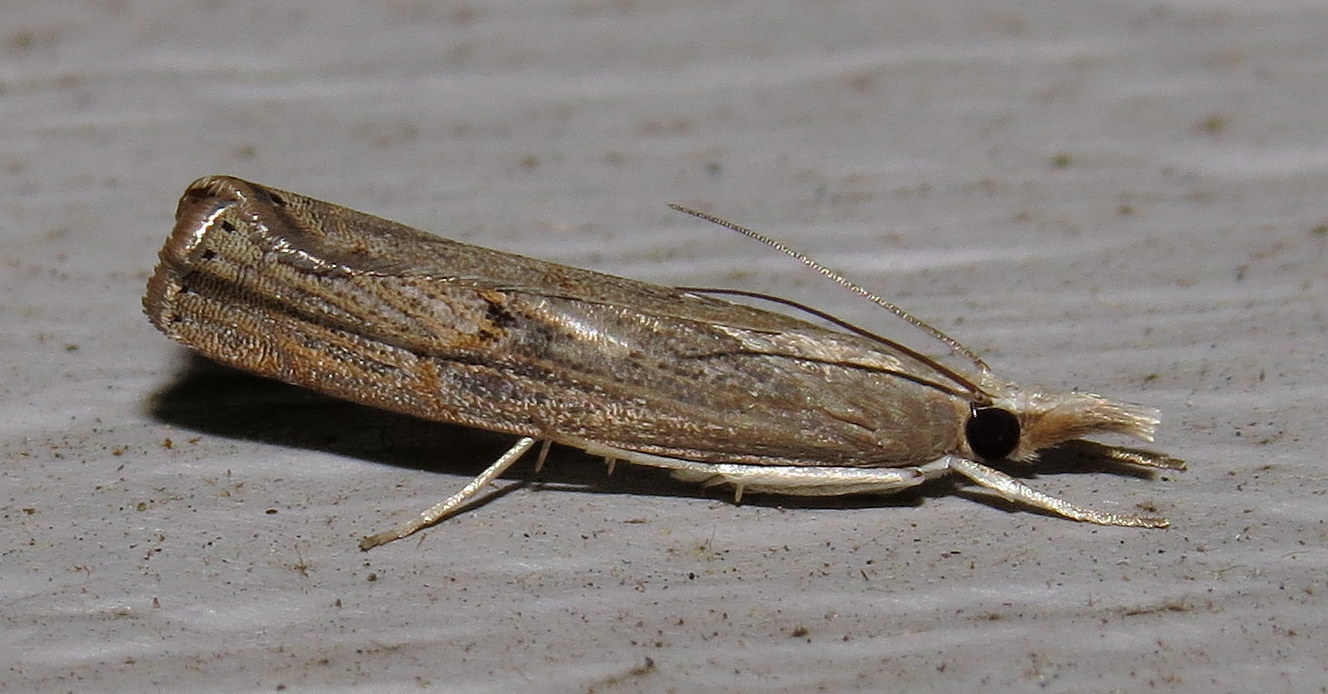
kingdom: Animalia
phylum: Arthropoda
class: Insecta
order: Lepidoptera
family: Crambidae
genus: Parapediasia
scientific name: Parapediasia teterellus
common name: Bluegrass webworm moth
